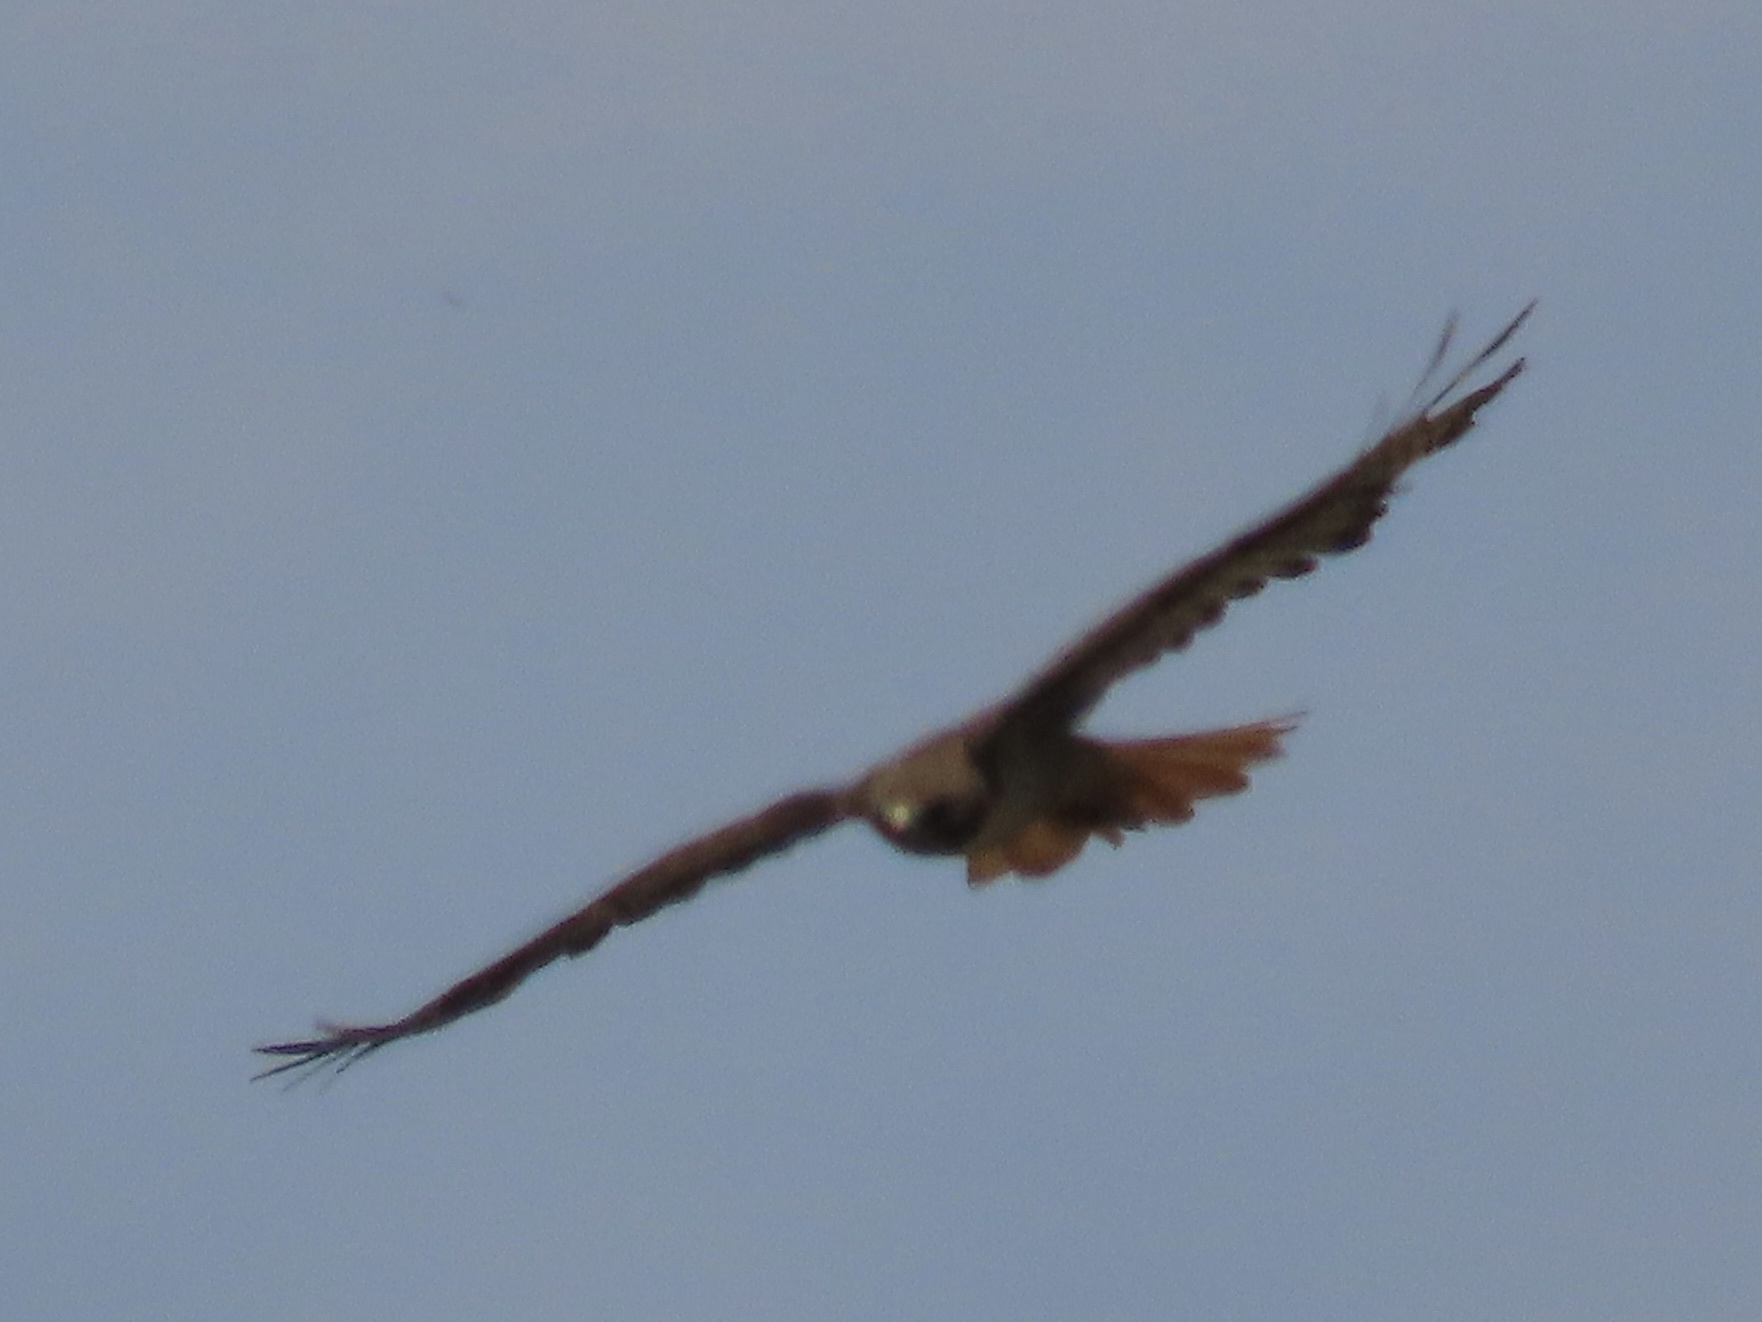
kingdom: Animalia
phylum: Chordata
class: Aves
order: Accipitriformes
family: Accipitridae
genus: Buteo
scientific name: Buteo jamaicensis
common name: Red-tailed hawk
